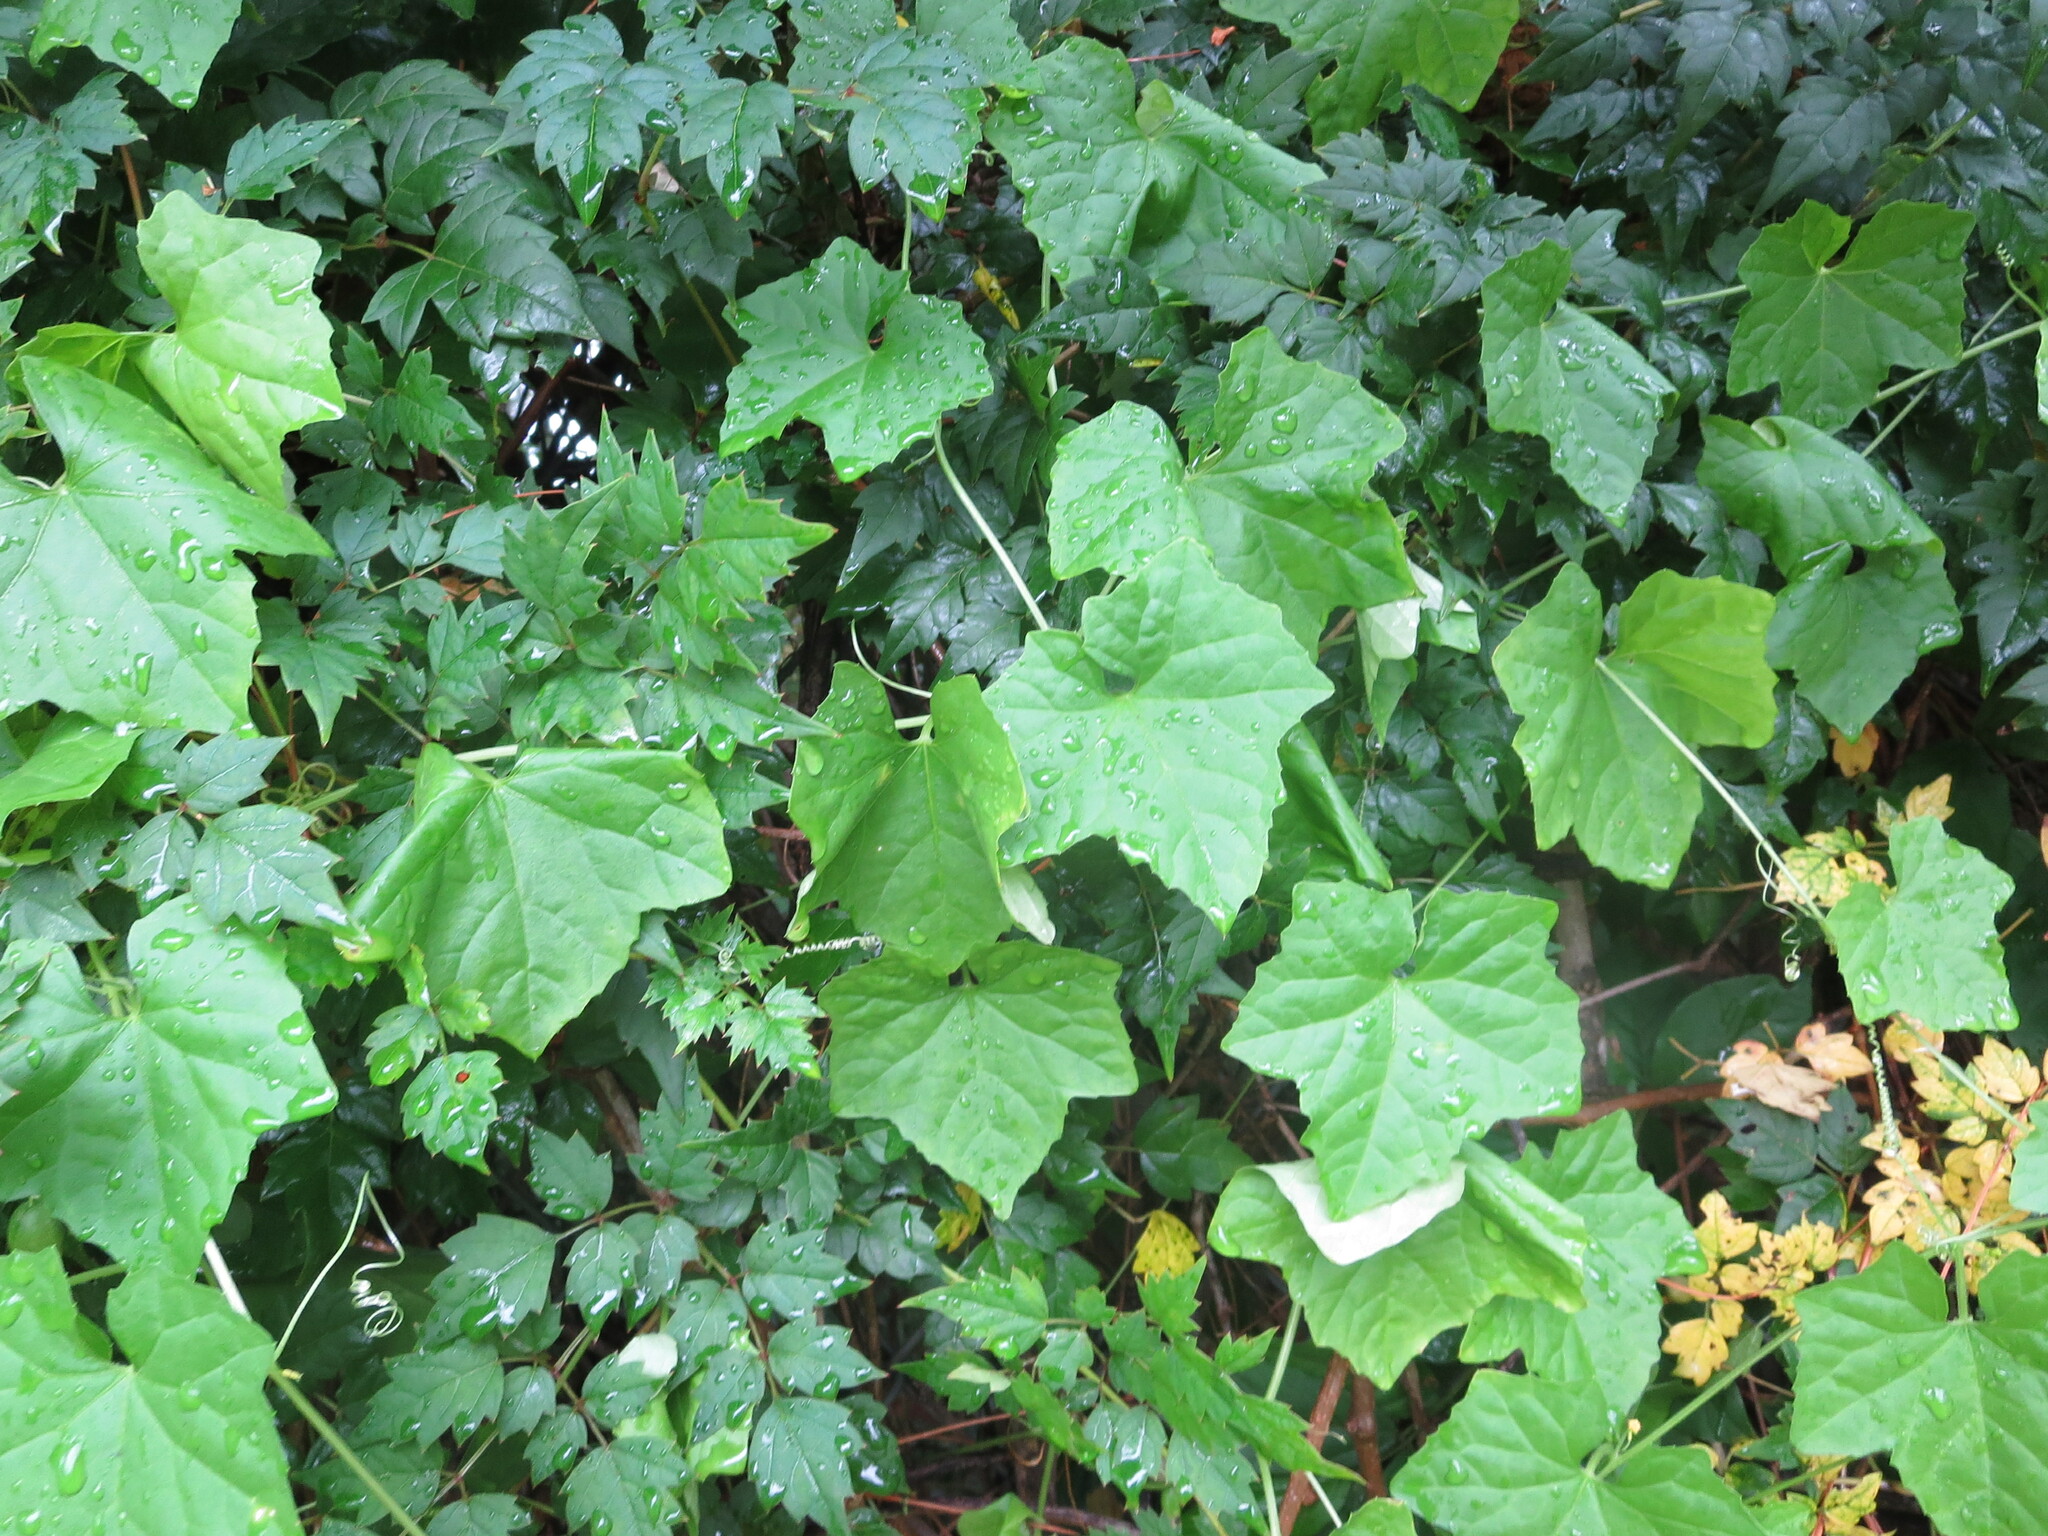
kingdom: Plantae
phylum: Tracheophyta
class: Magnoliopsida
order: Cucurbitales
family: Cucurbitaceae
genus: Melothria
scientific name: Melothria pendula
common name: Creeping-cucumber
